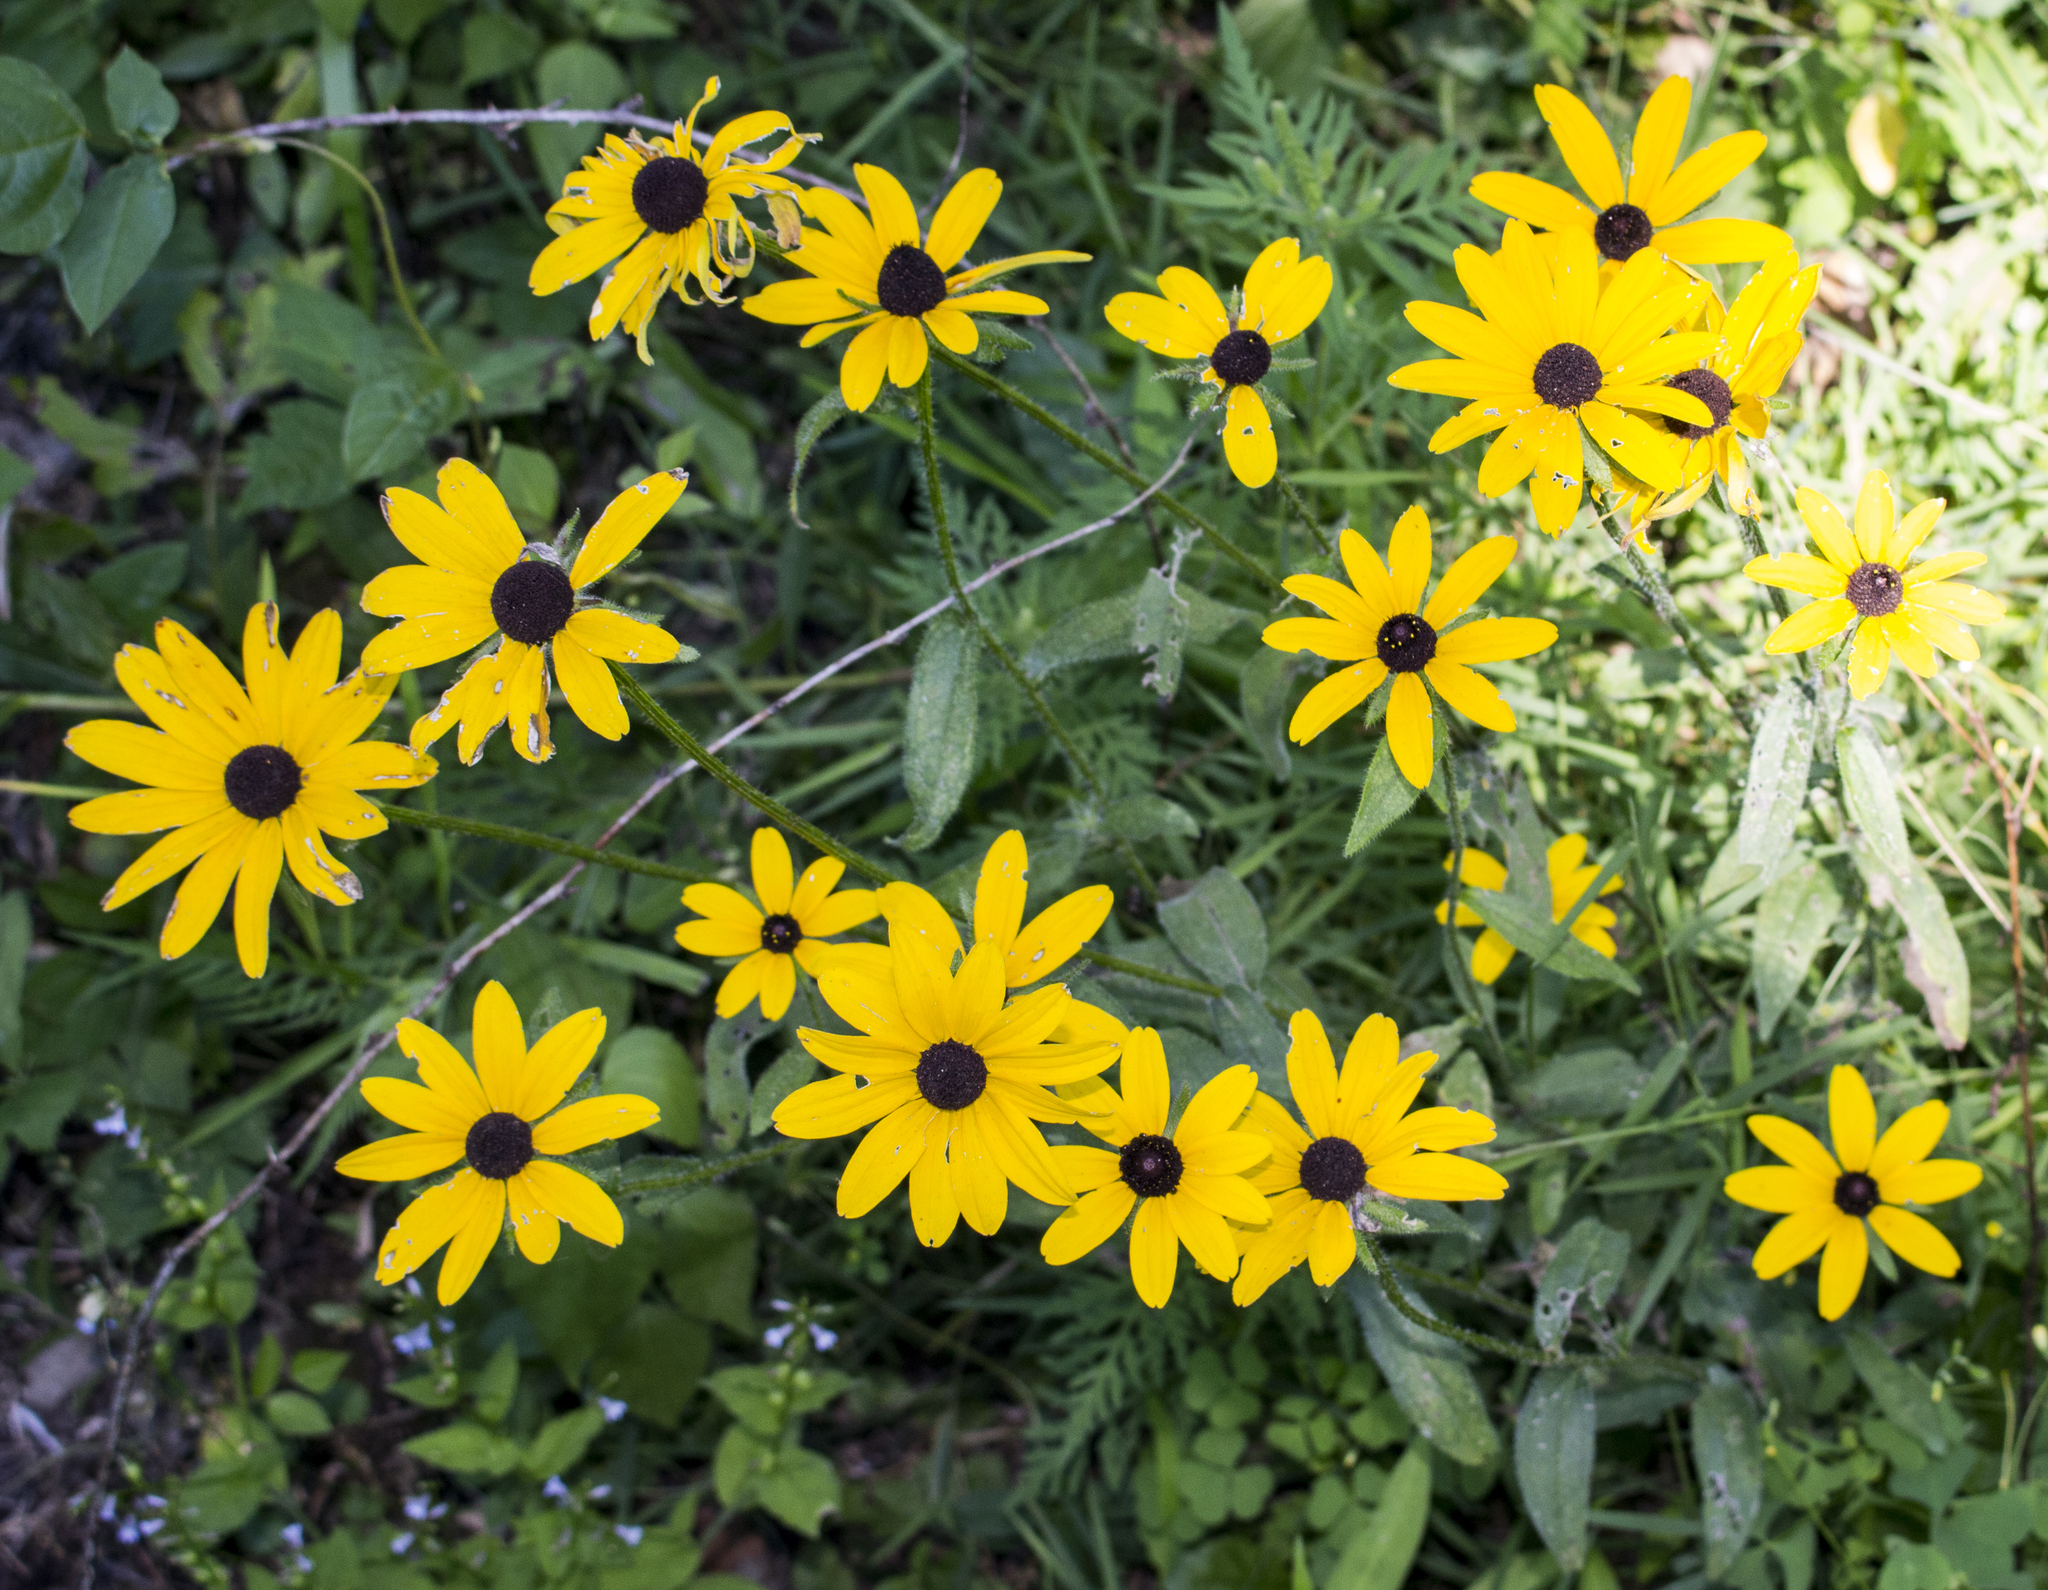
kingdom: Plantae
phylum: Tracheophyta
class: Magnoliopsida
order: Asterales
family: Asteraceae
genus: Rudbeckia
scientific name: Rudbeckia hirta
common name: Black-eyed-susan
